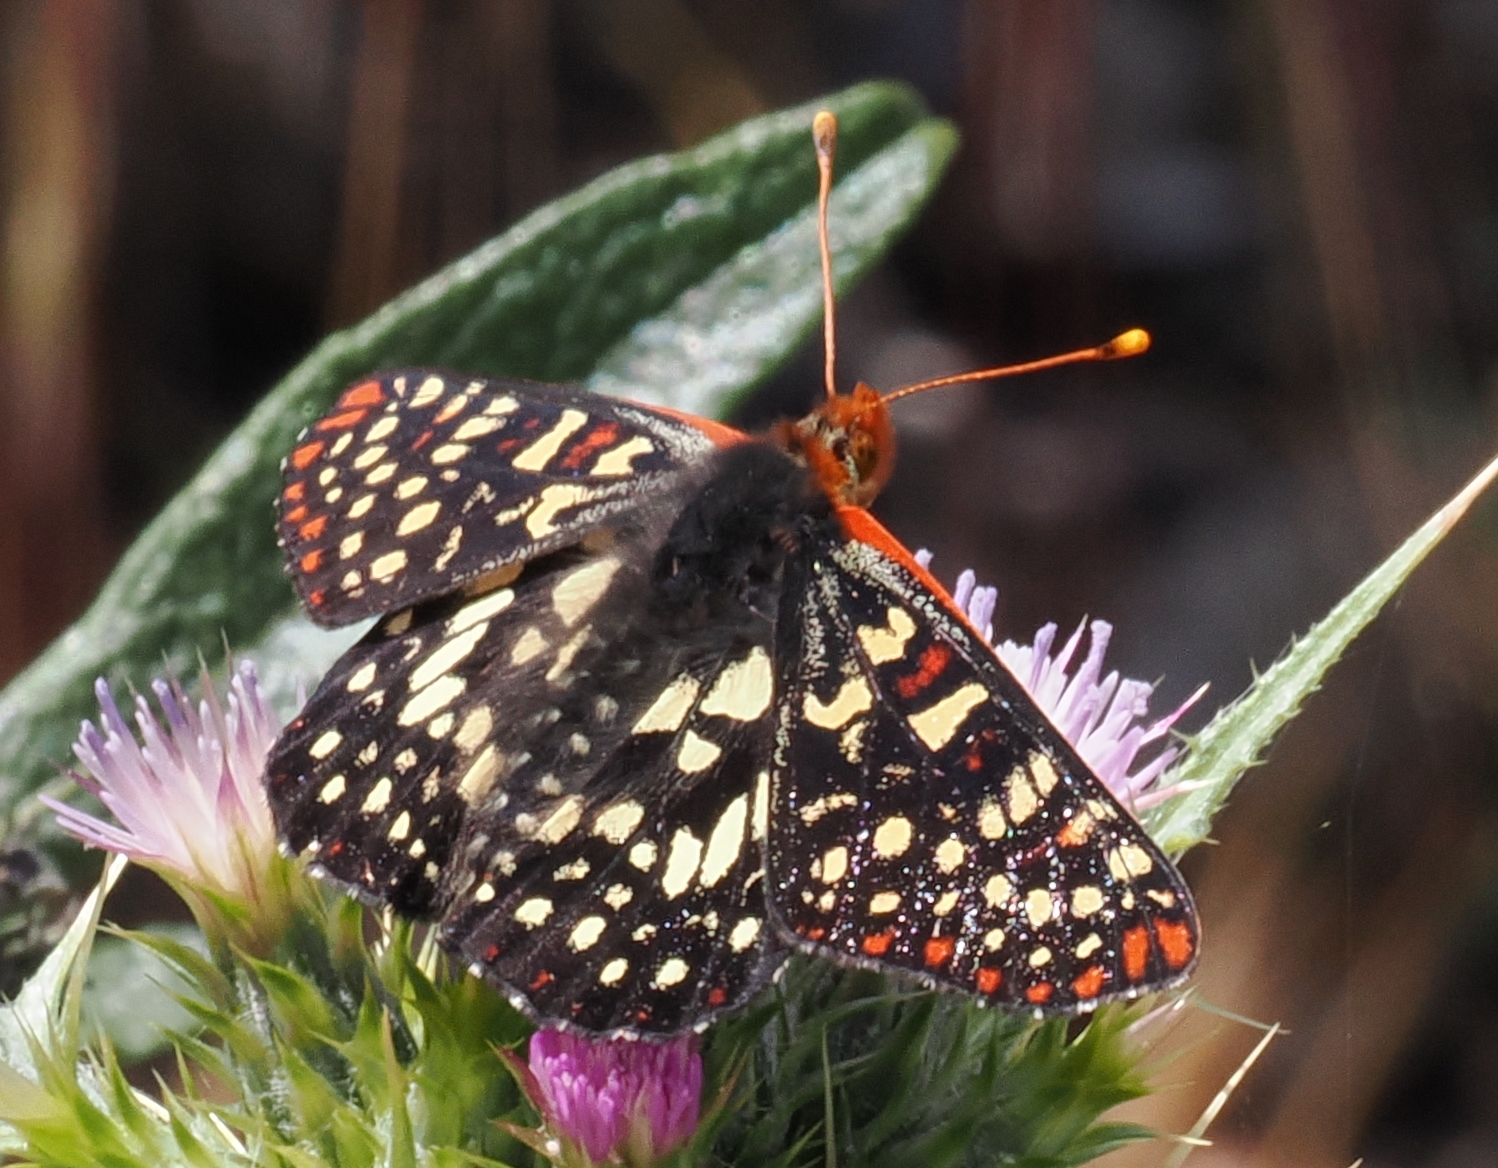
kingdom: Animalia
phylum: Arthropoda
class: Insecta
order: Lepidoptera
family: Nymphalidae
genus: Occidryas
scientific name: Occidryas chalcedona
